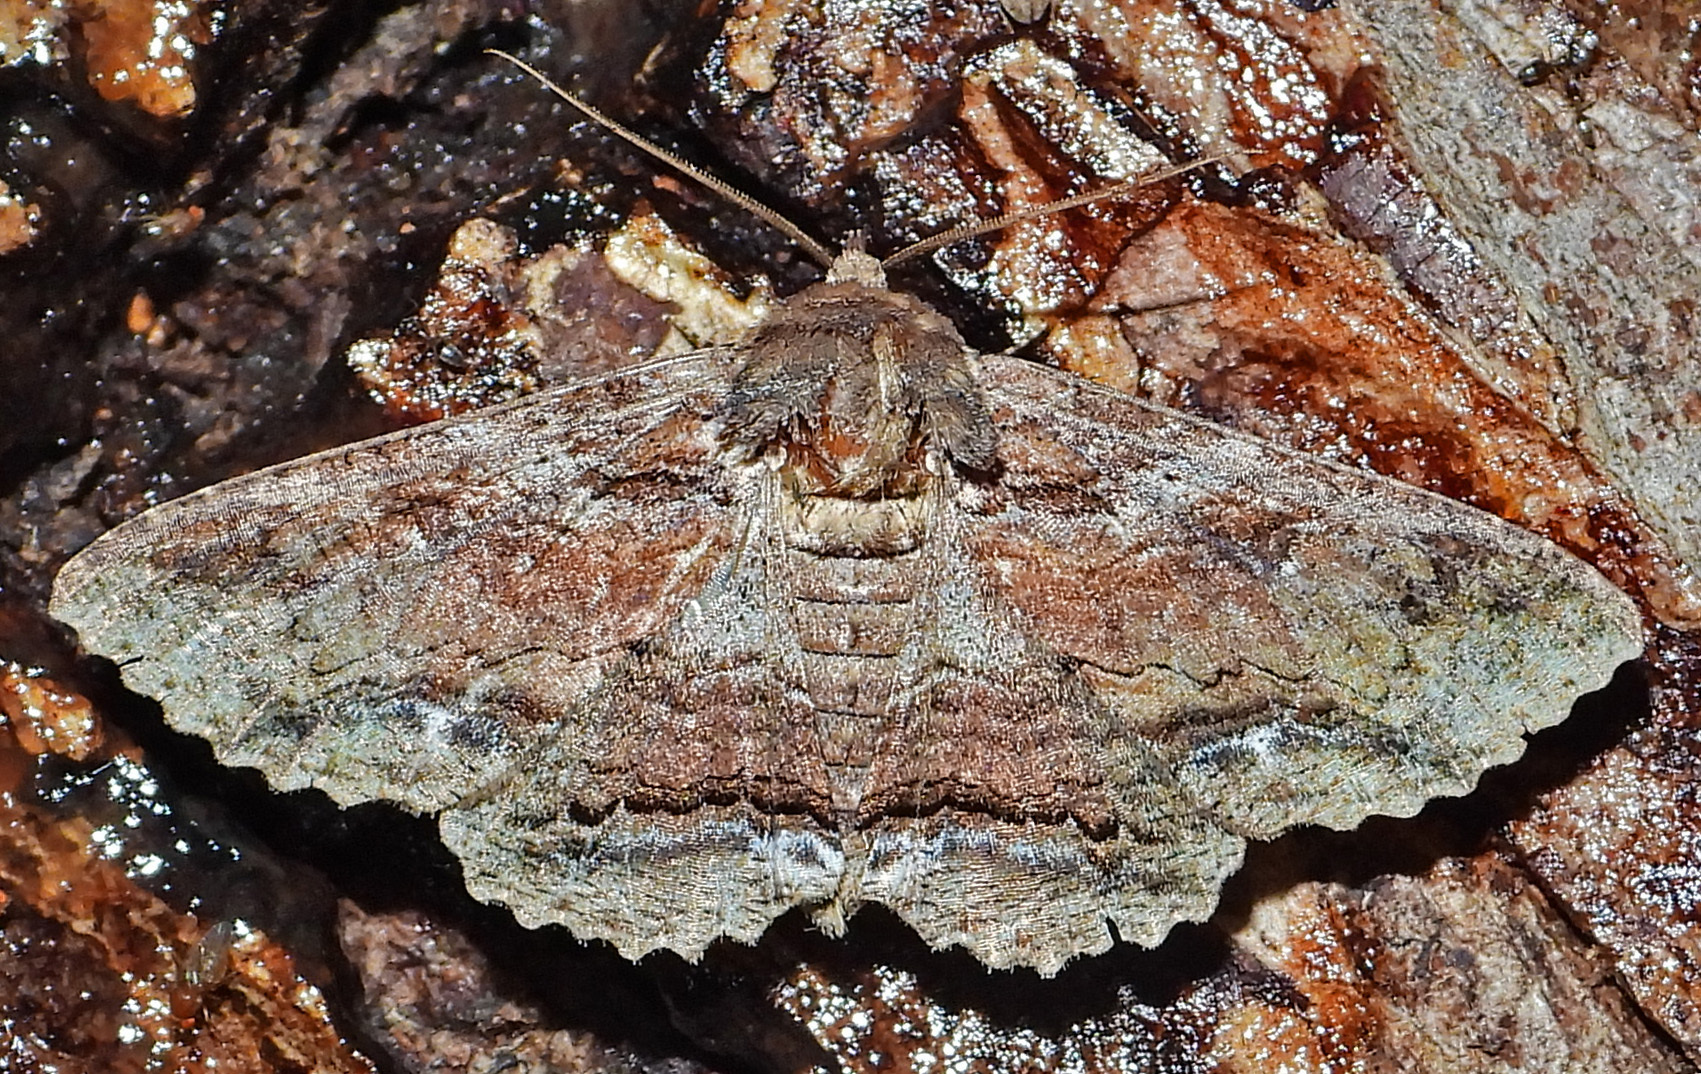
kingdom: Animalia
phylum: Arthropoda
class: Insecta
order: Lepidoptera
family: Erebidae
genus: Zale
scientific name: Zale lunata
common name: Lunate zale moth
